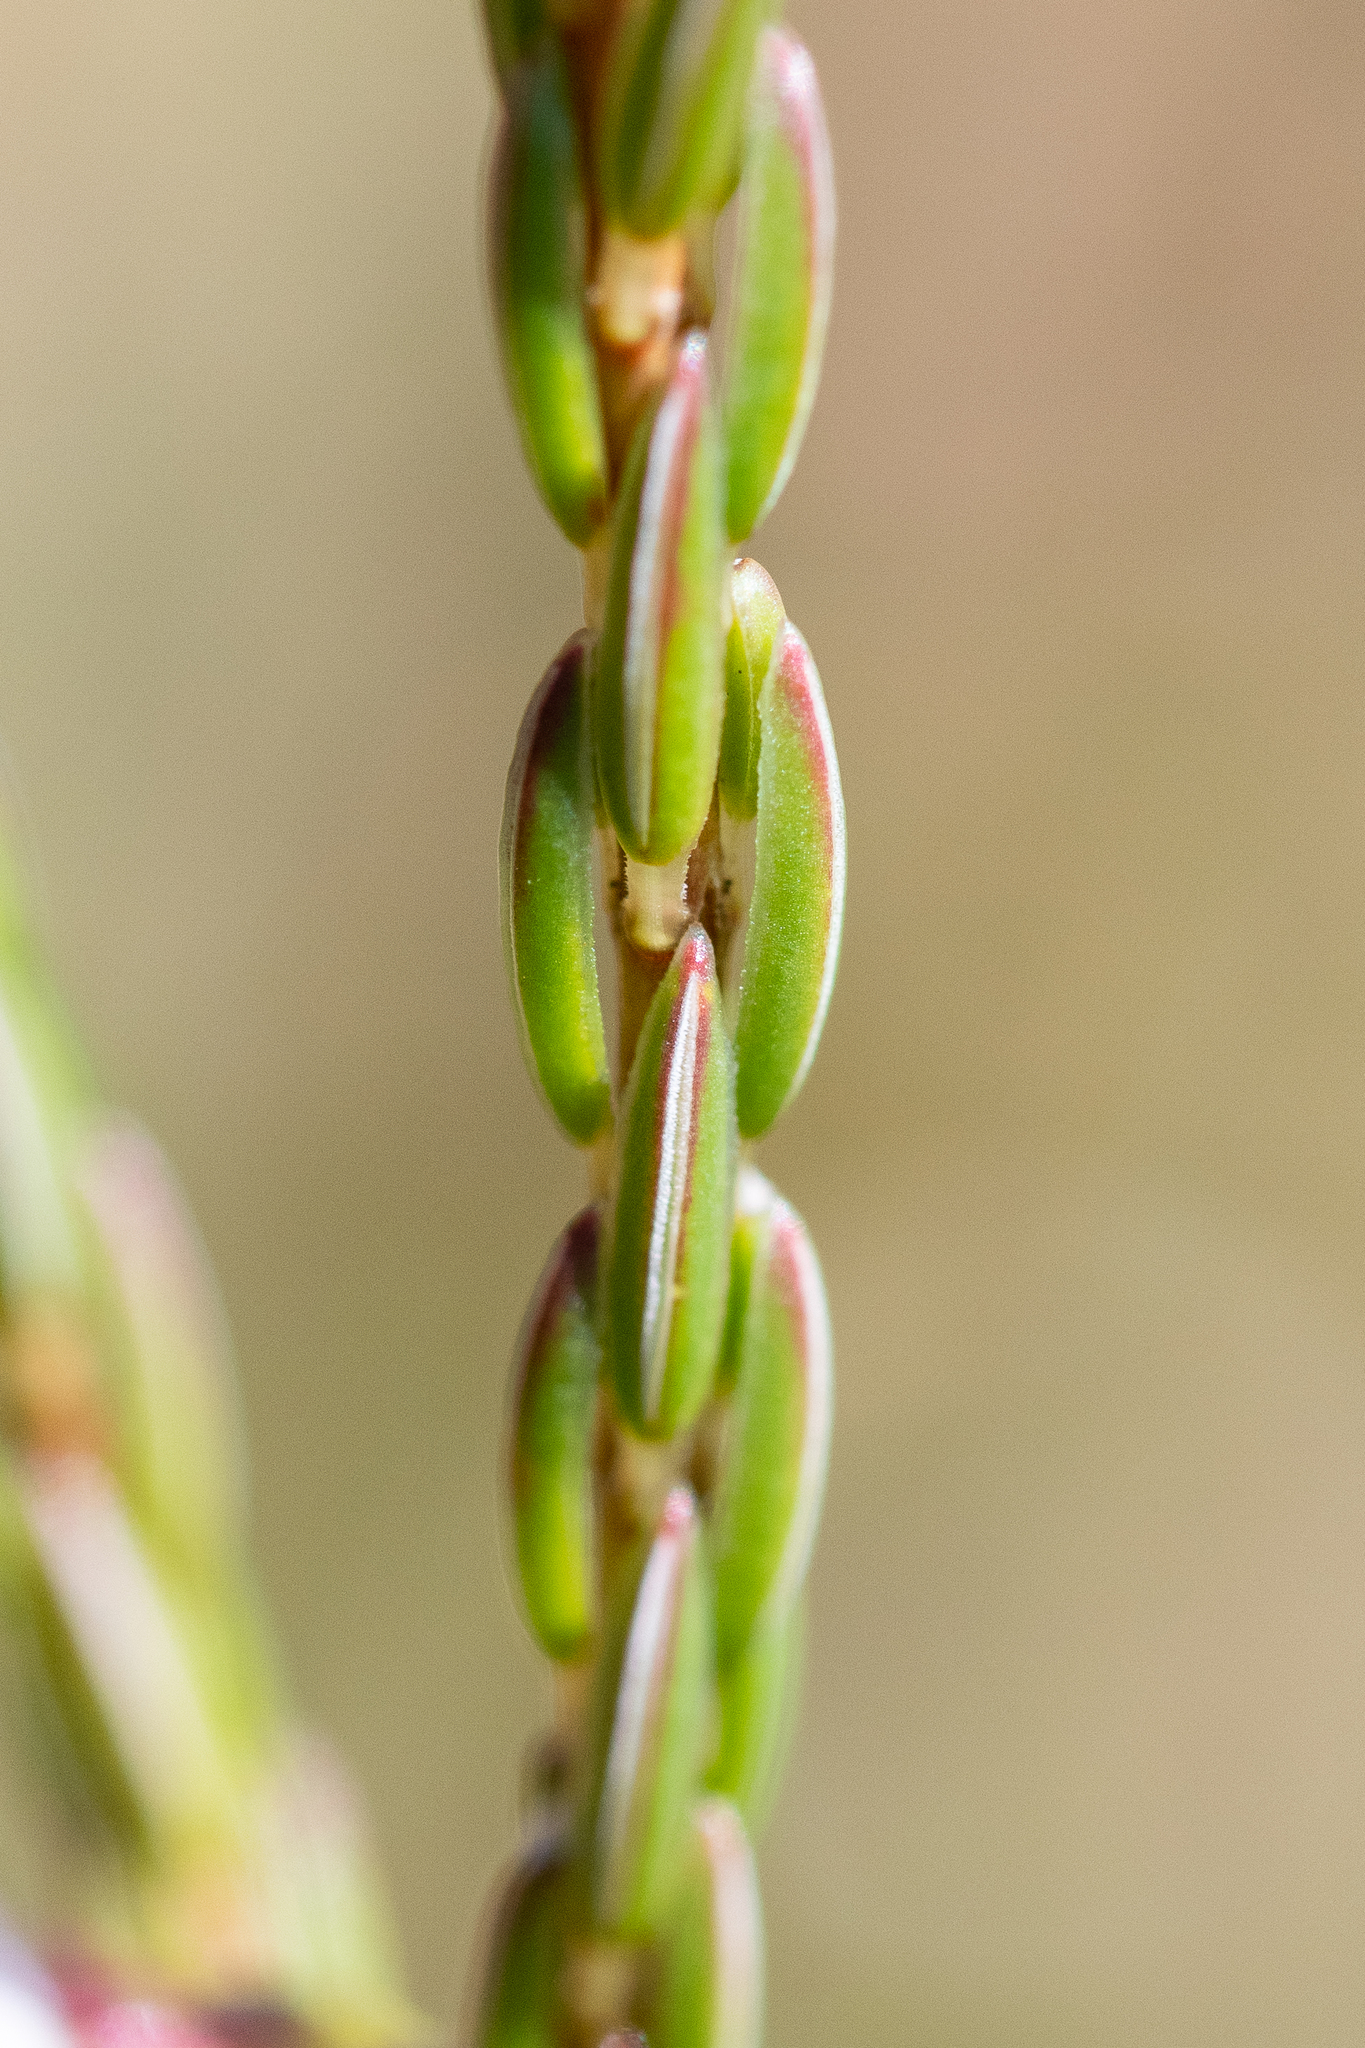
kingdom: Plantae
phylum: Tracheophyta
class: Magnoliopsida
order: Ericales
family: Ericaceae
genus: Erica
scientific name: Erica articularis
